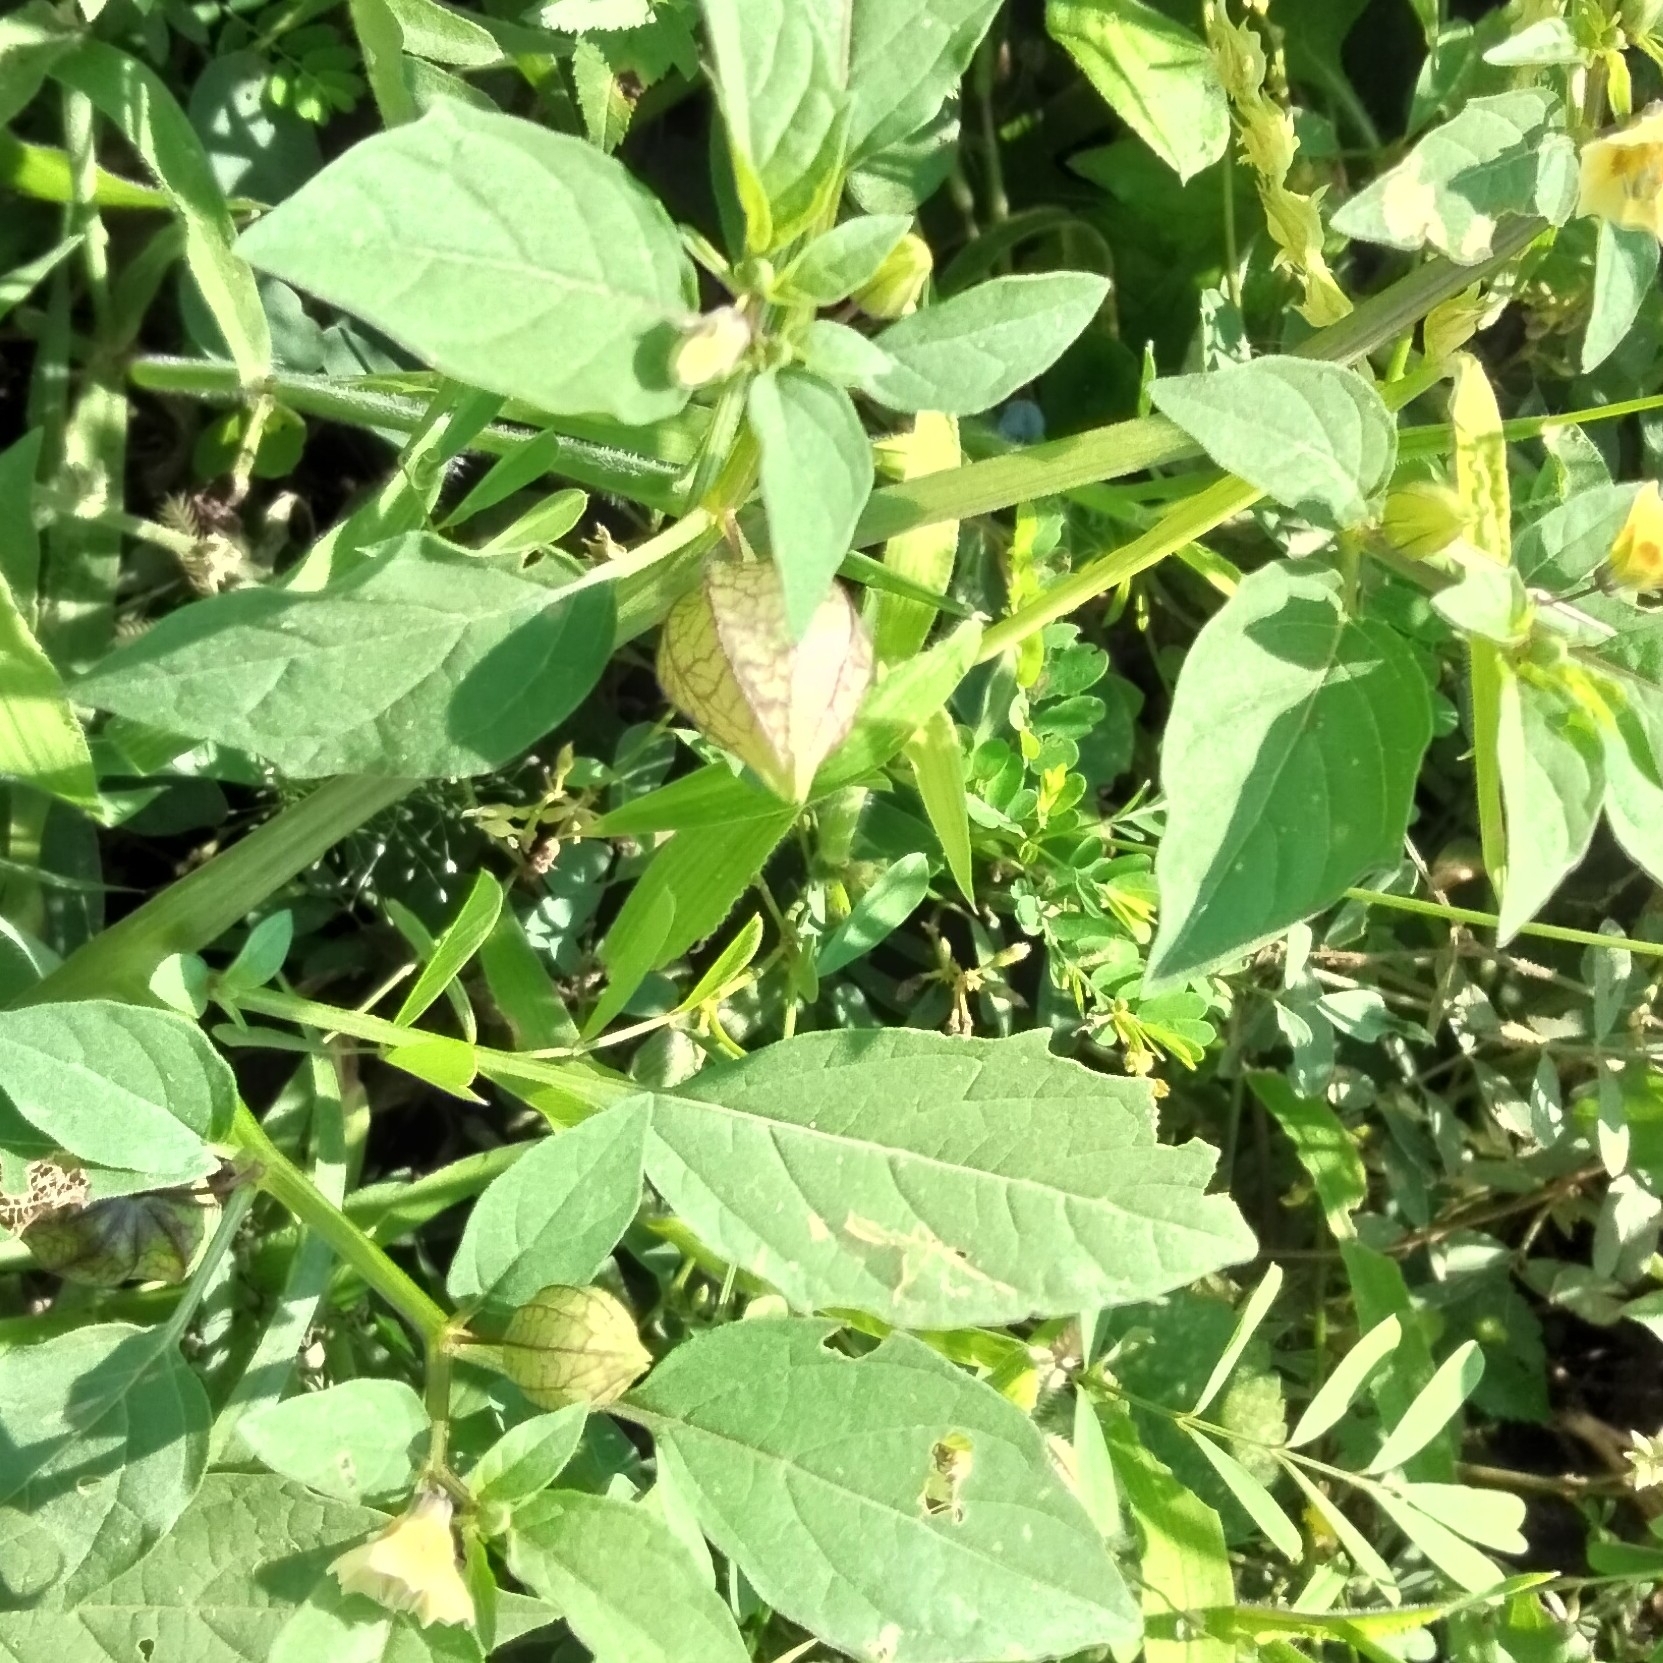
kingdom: Plantae
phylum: Tracheophyta
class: Magnoliopsida
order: Solanales
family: Solanaceae
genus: Physalis
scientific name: Physalis angulata
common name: Angular winter-cherry
